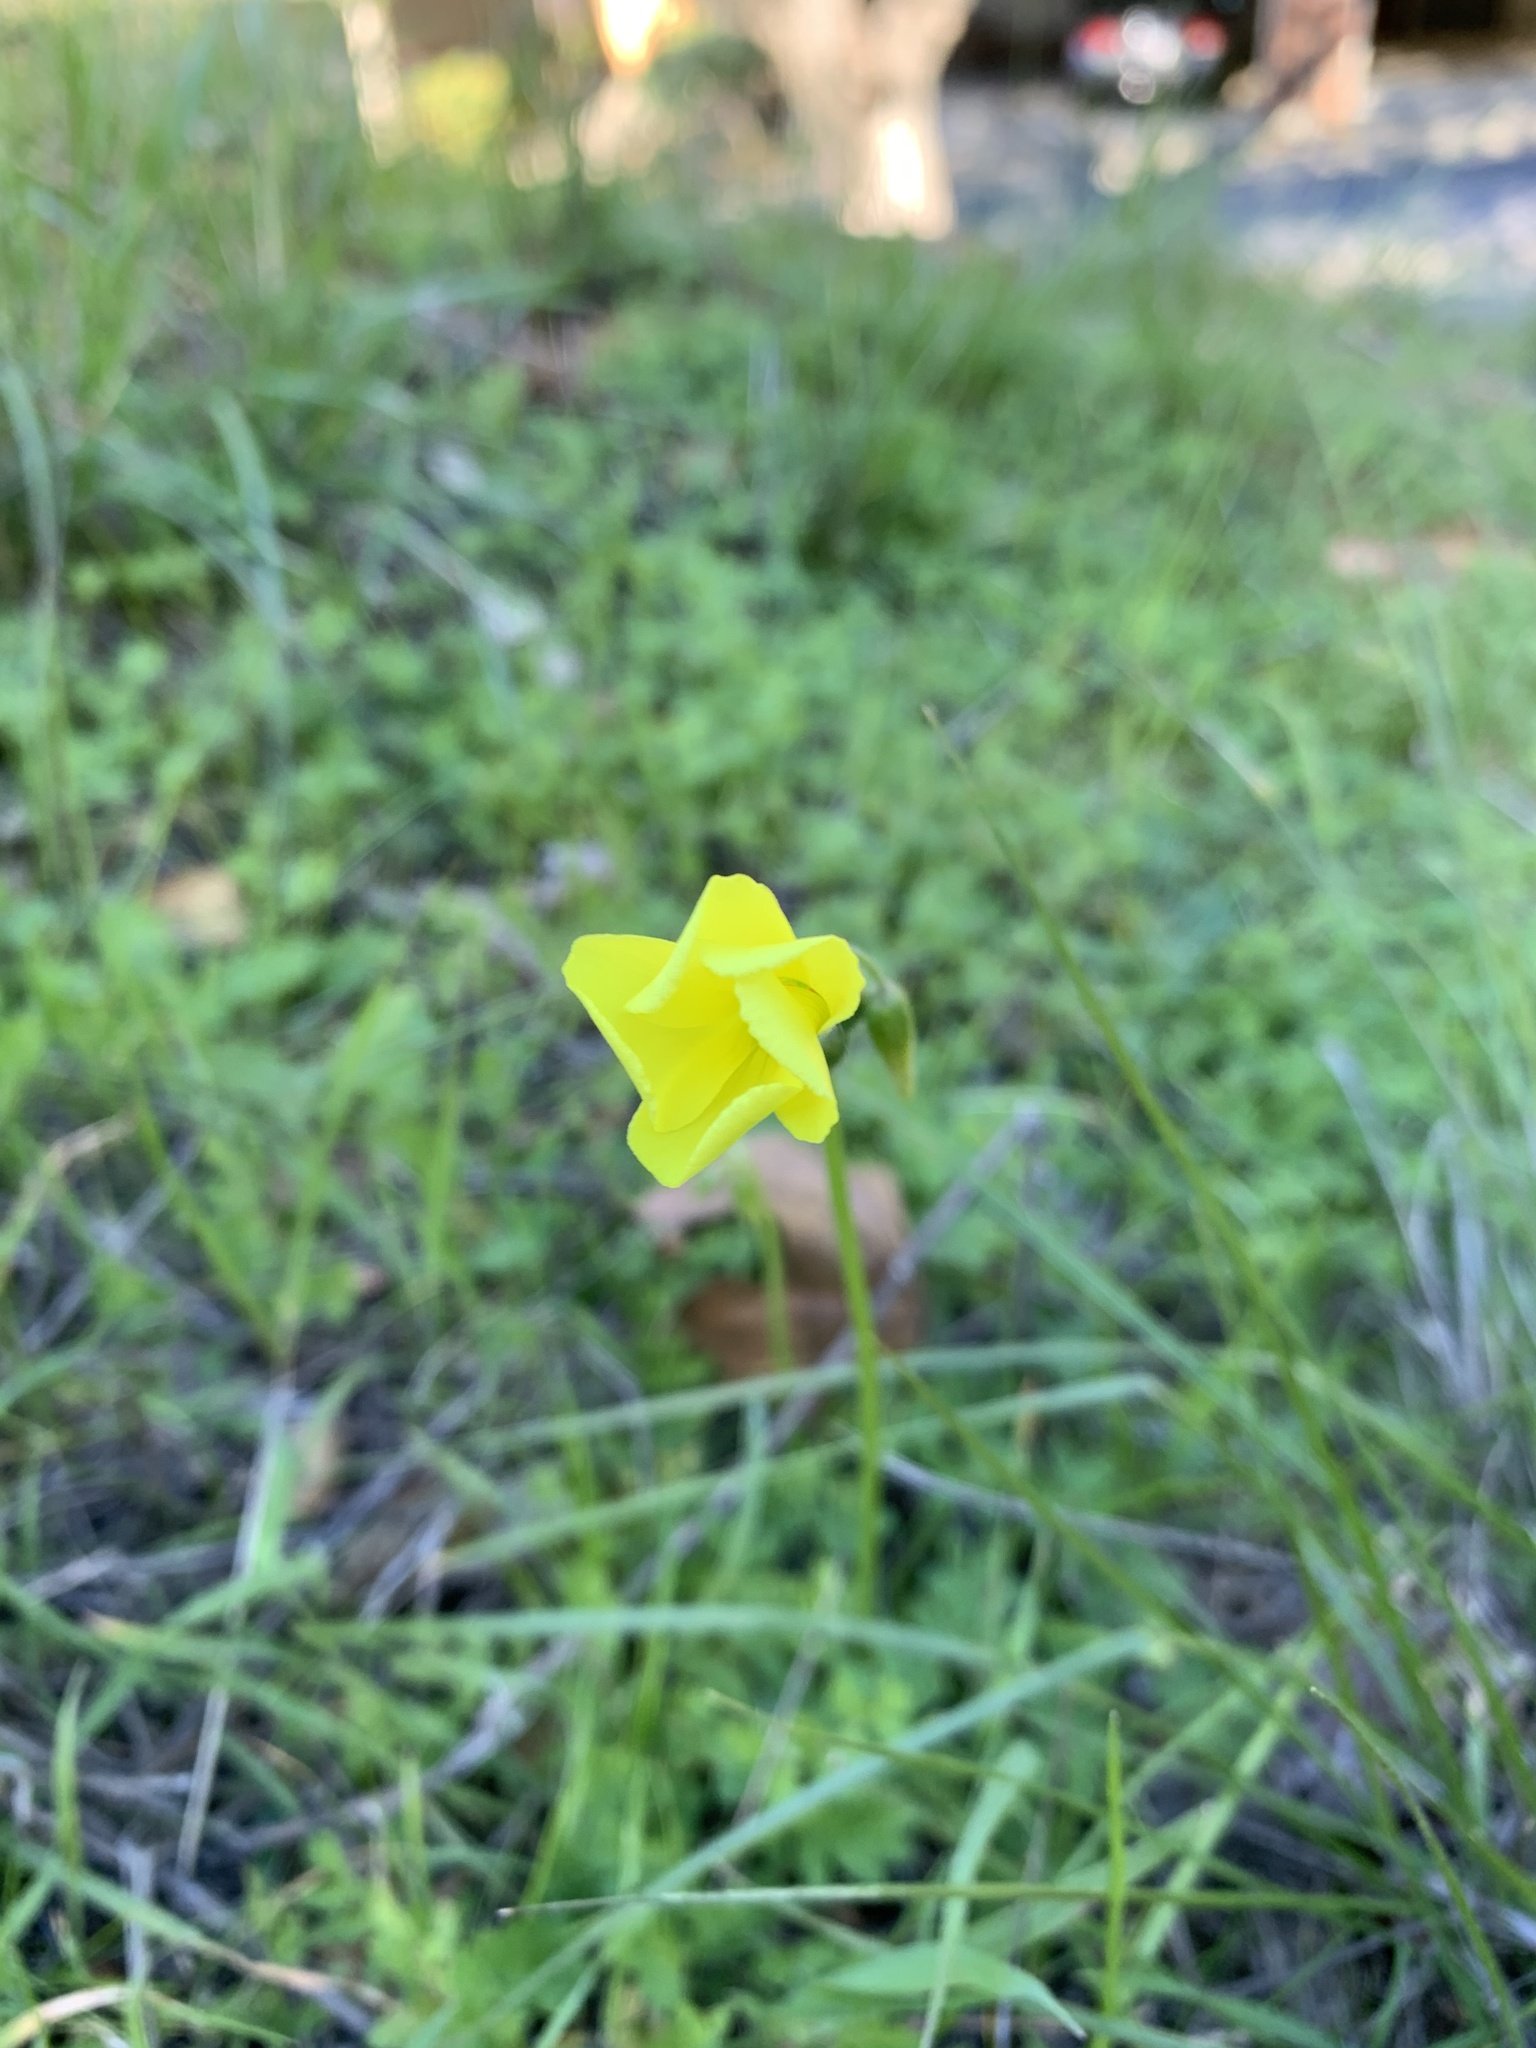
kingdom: Plantae
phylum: Tracheophyta
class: Magnoliopsida
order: Oxalidales
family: Oxalidaceae
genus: Oxalis
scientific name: Oxalis pes-caprae
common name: Bermuda-buttercup
